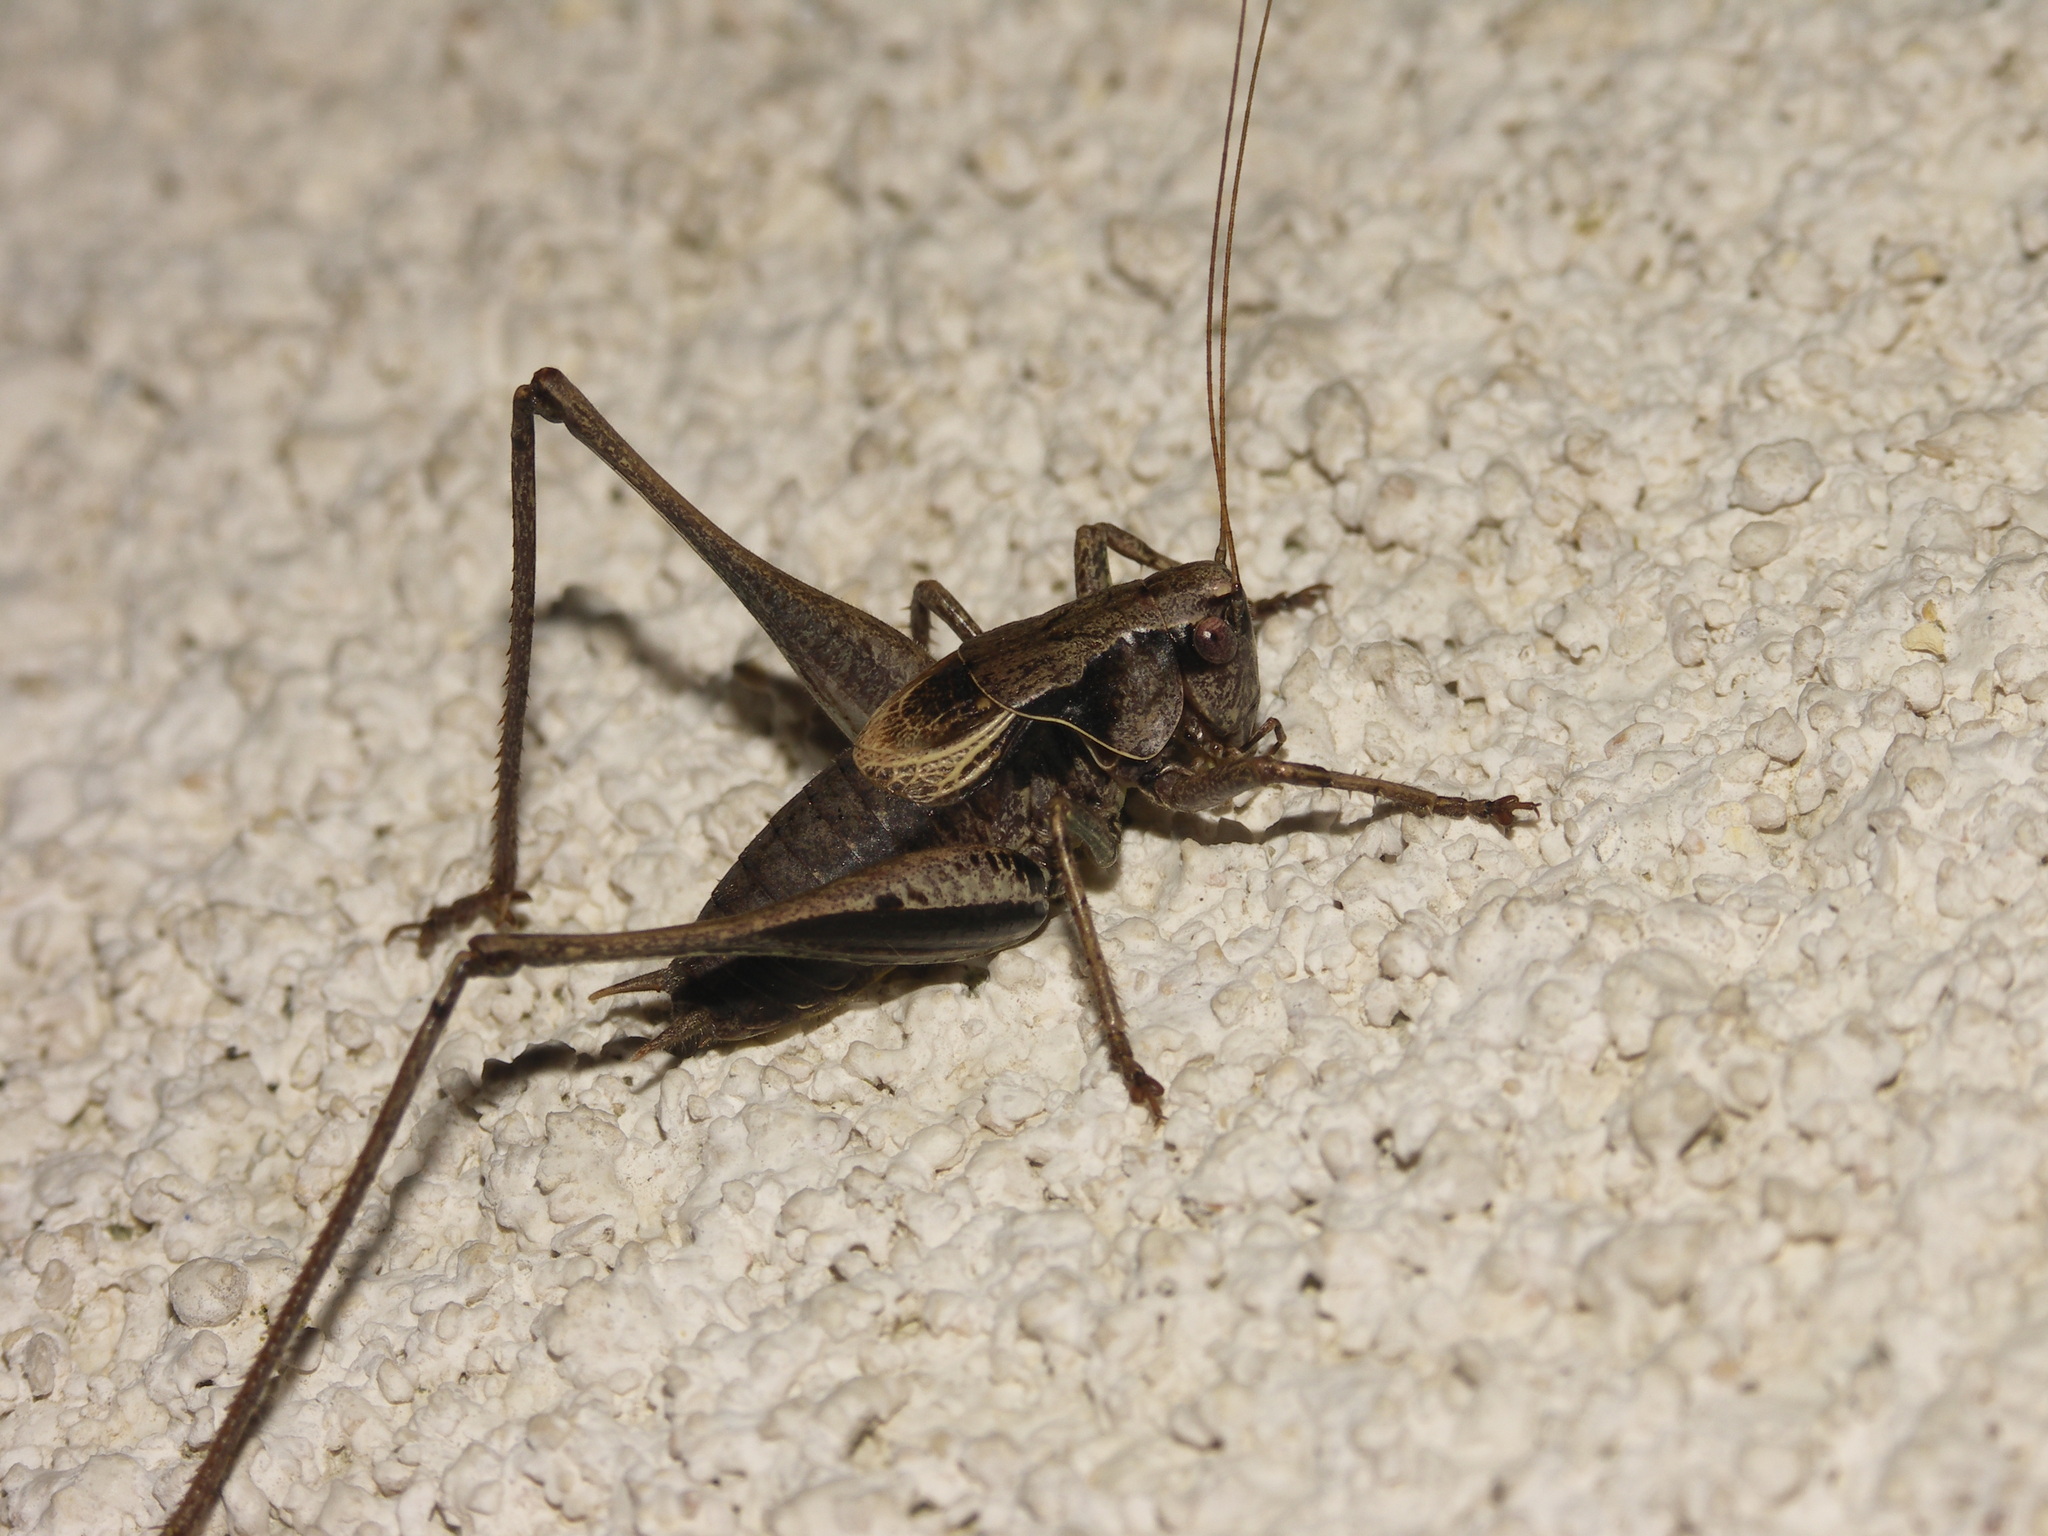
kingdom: Animalia
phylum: Arthropoda
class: Insecta
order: Orthoptera
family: Tettigoniidae
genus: Pholidoptera
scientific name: Pholidoptera griseoaptera
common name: Dark bush-cricket
